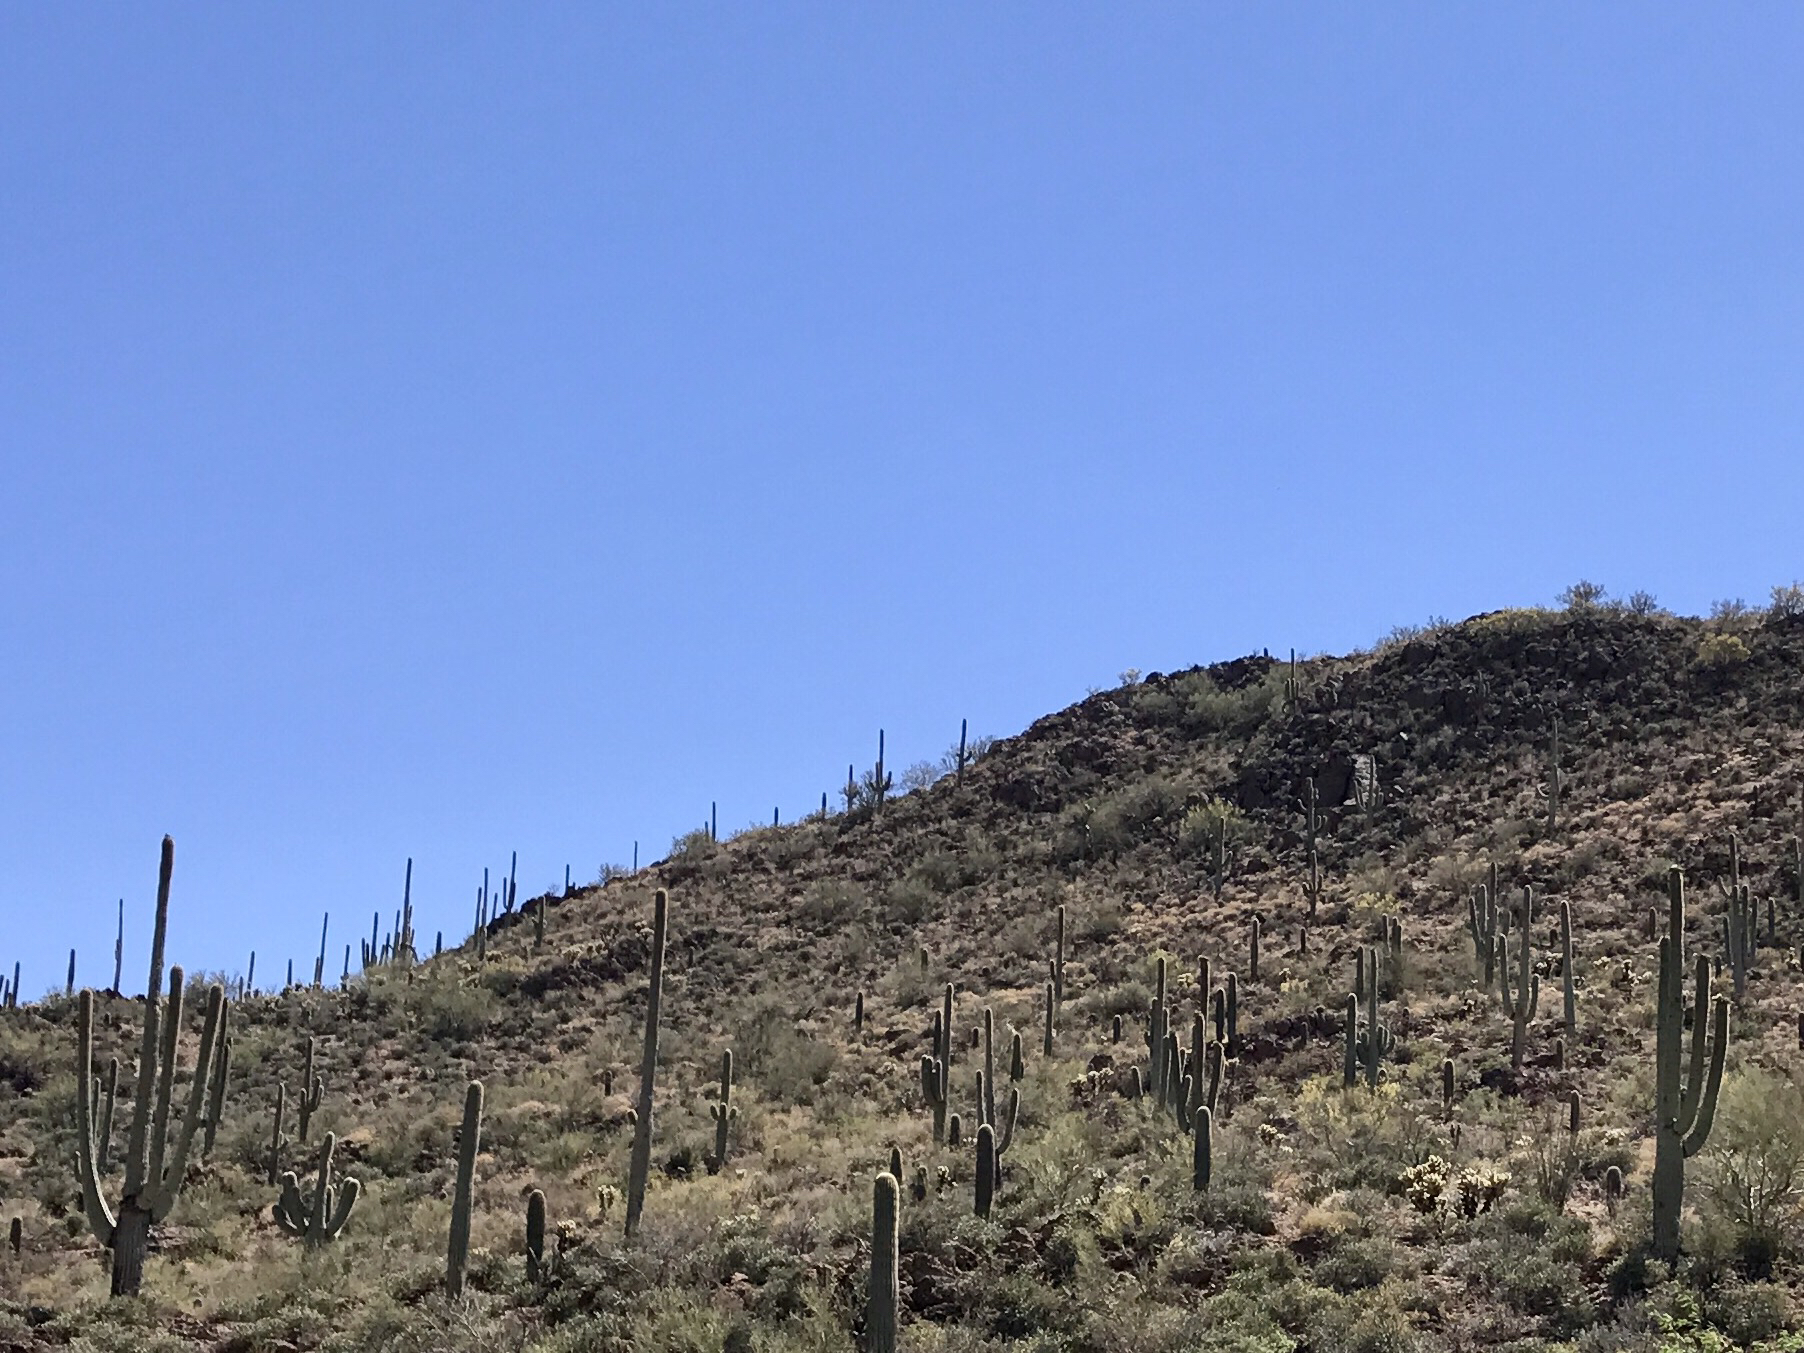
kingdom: Plantae
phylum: Tracheophyta
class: Magnoliopsida
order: Caryophyllales
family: Cactaceae
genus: Carnegiea
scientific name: Carnegiea gigantea
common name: Saguaro
